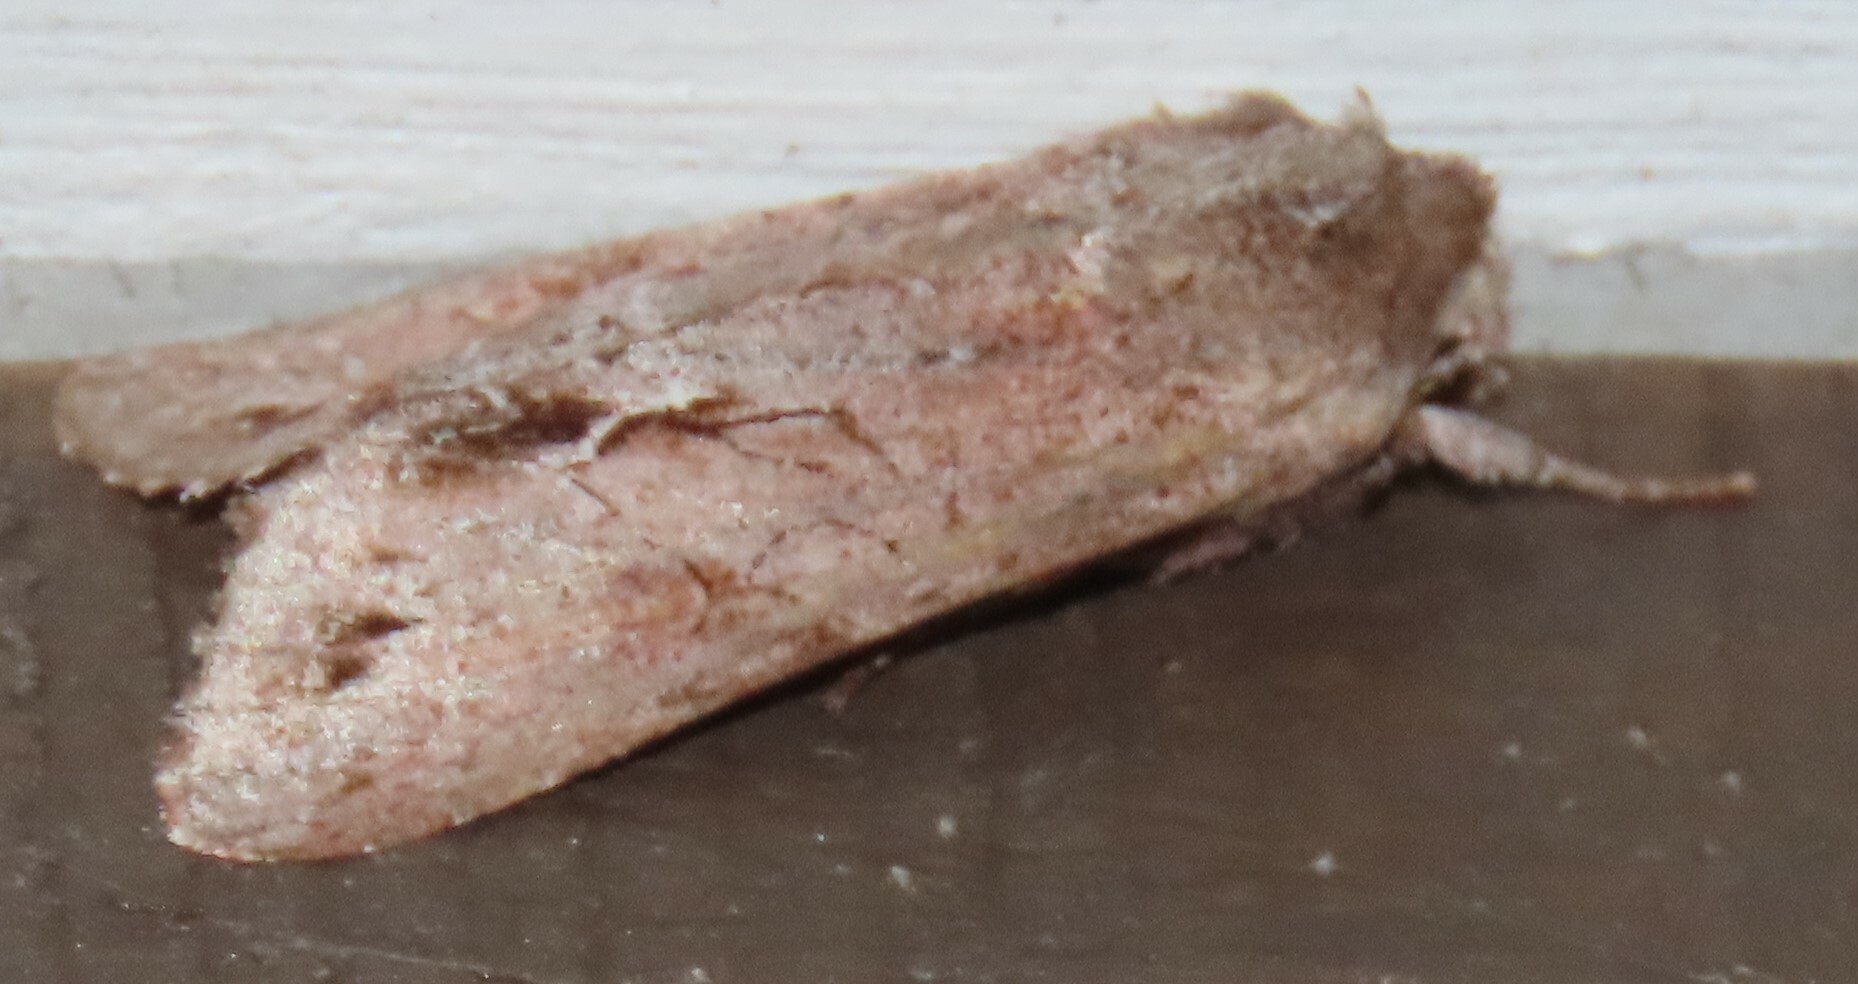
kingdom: Animalia
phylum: Arthropoda
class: Insecta
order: Lepidoptera
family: Noctuidae
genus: Ichneutica
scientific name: Ichneutica
